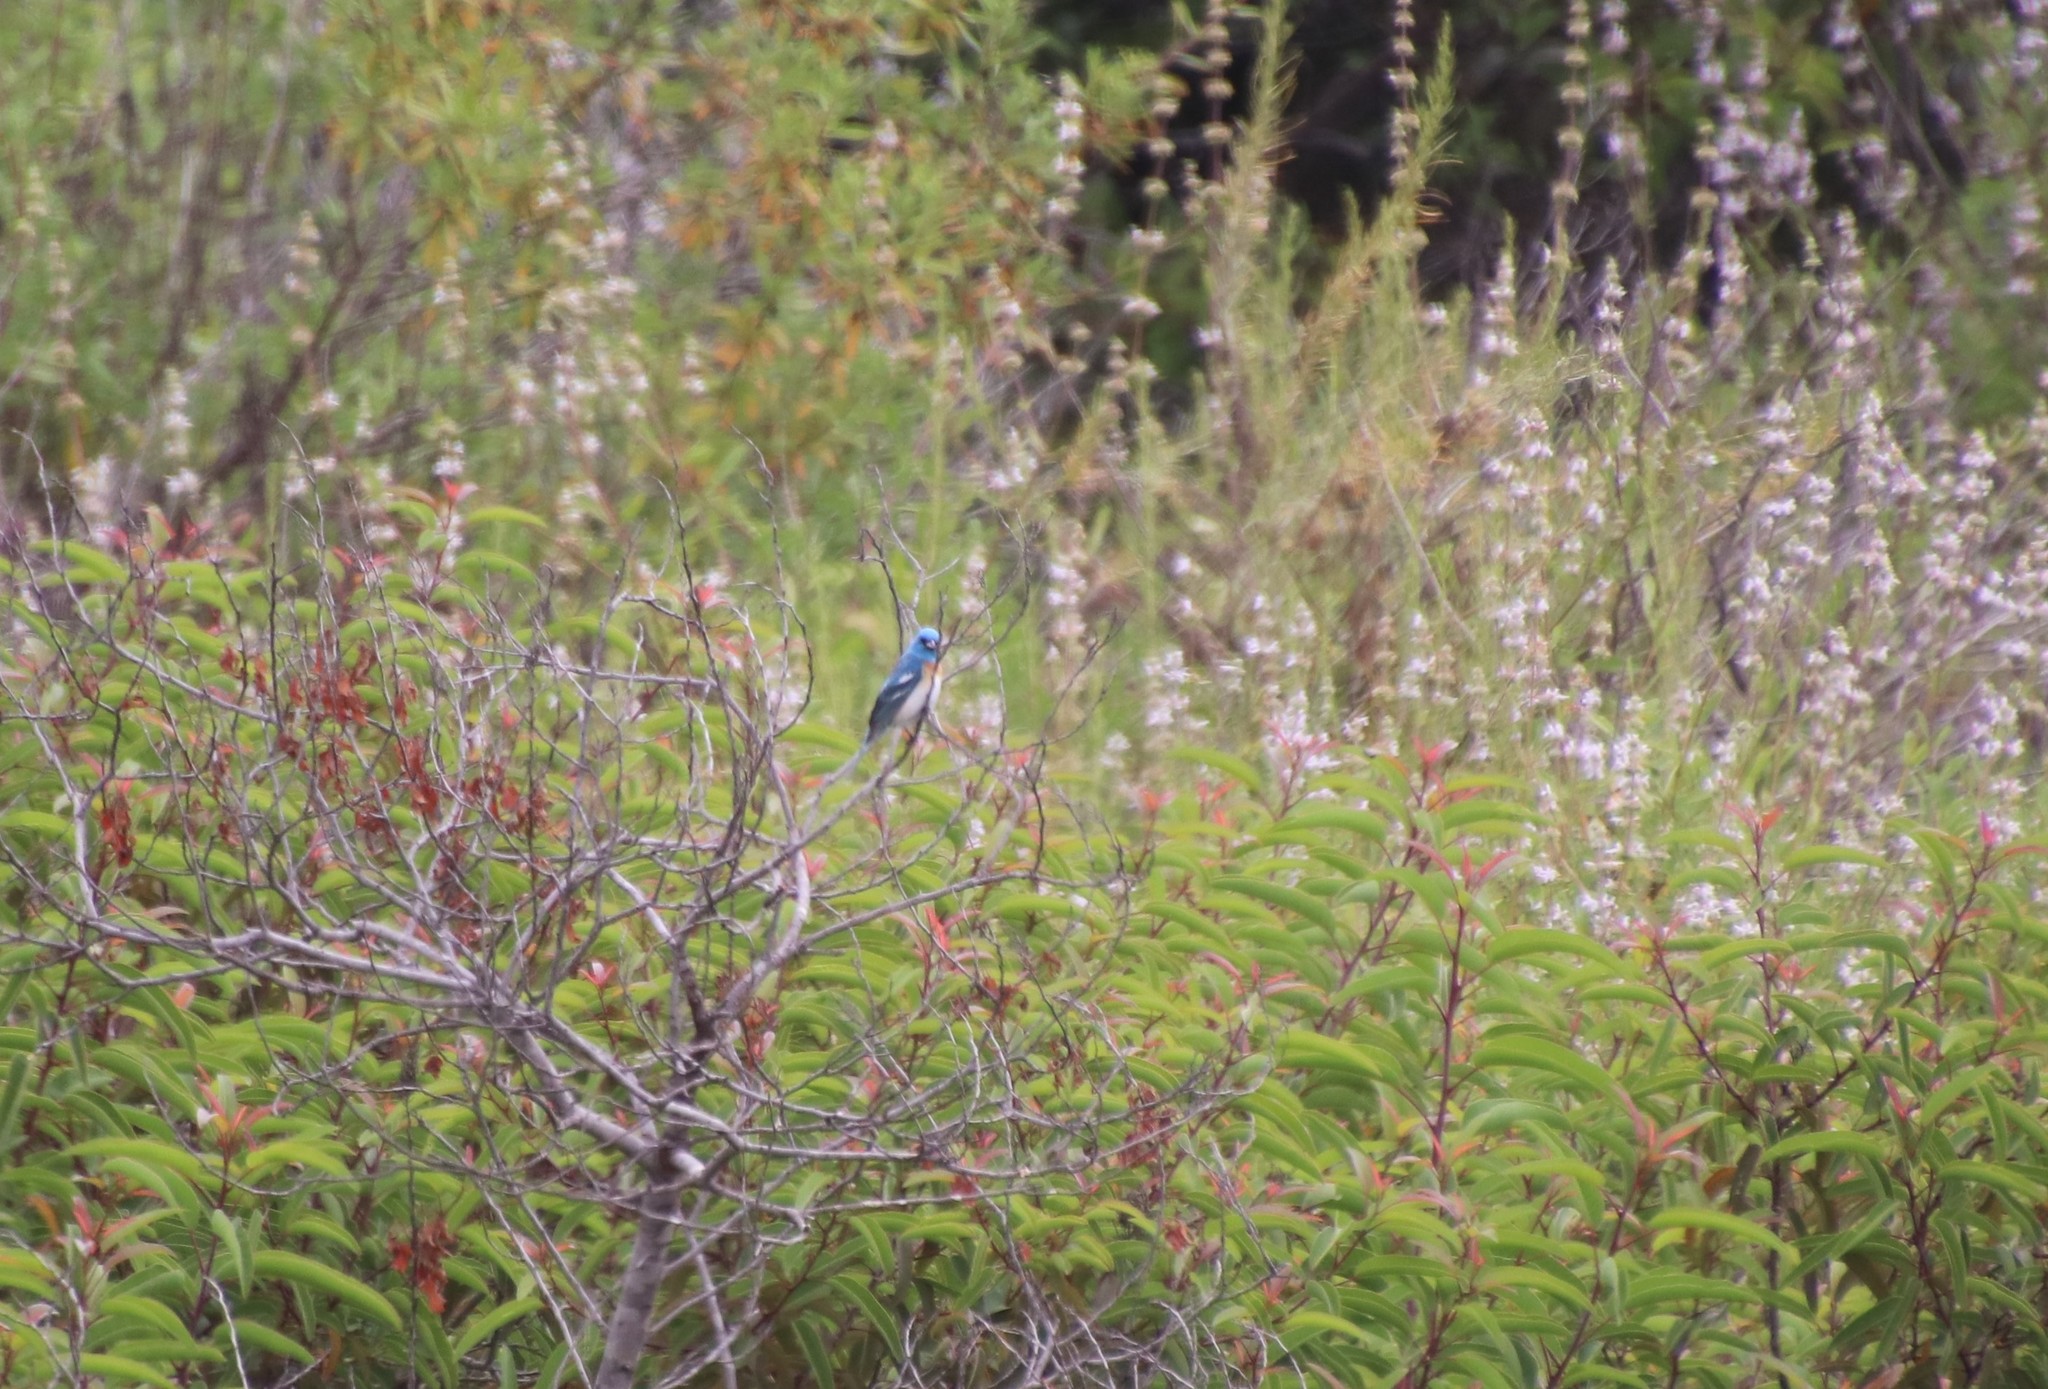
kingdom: Animalia
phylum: Chordata
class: Aves
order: Passeriformes
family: Cardinalidae
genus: Passerina
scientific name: Passerina amoena
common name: Lazuli bunting
